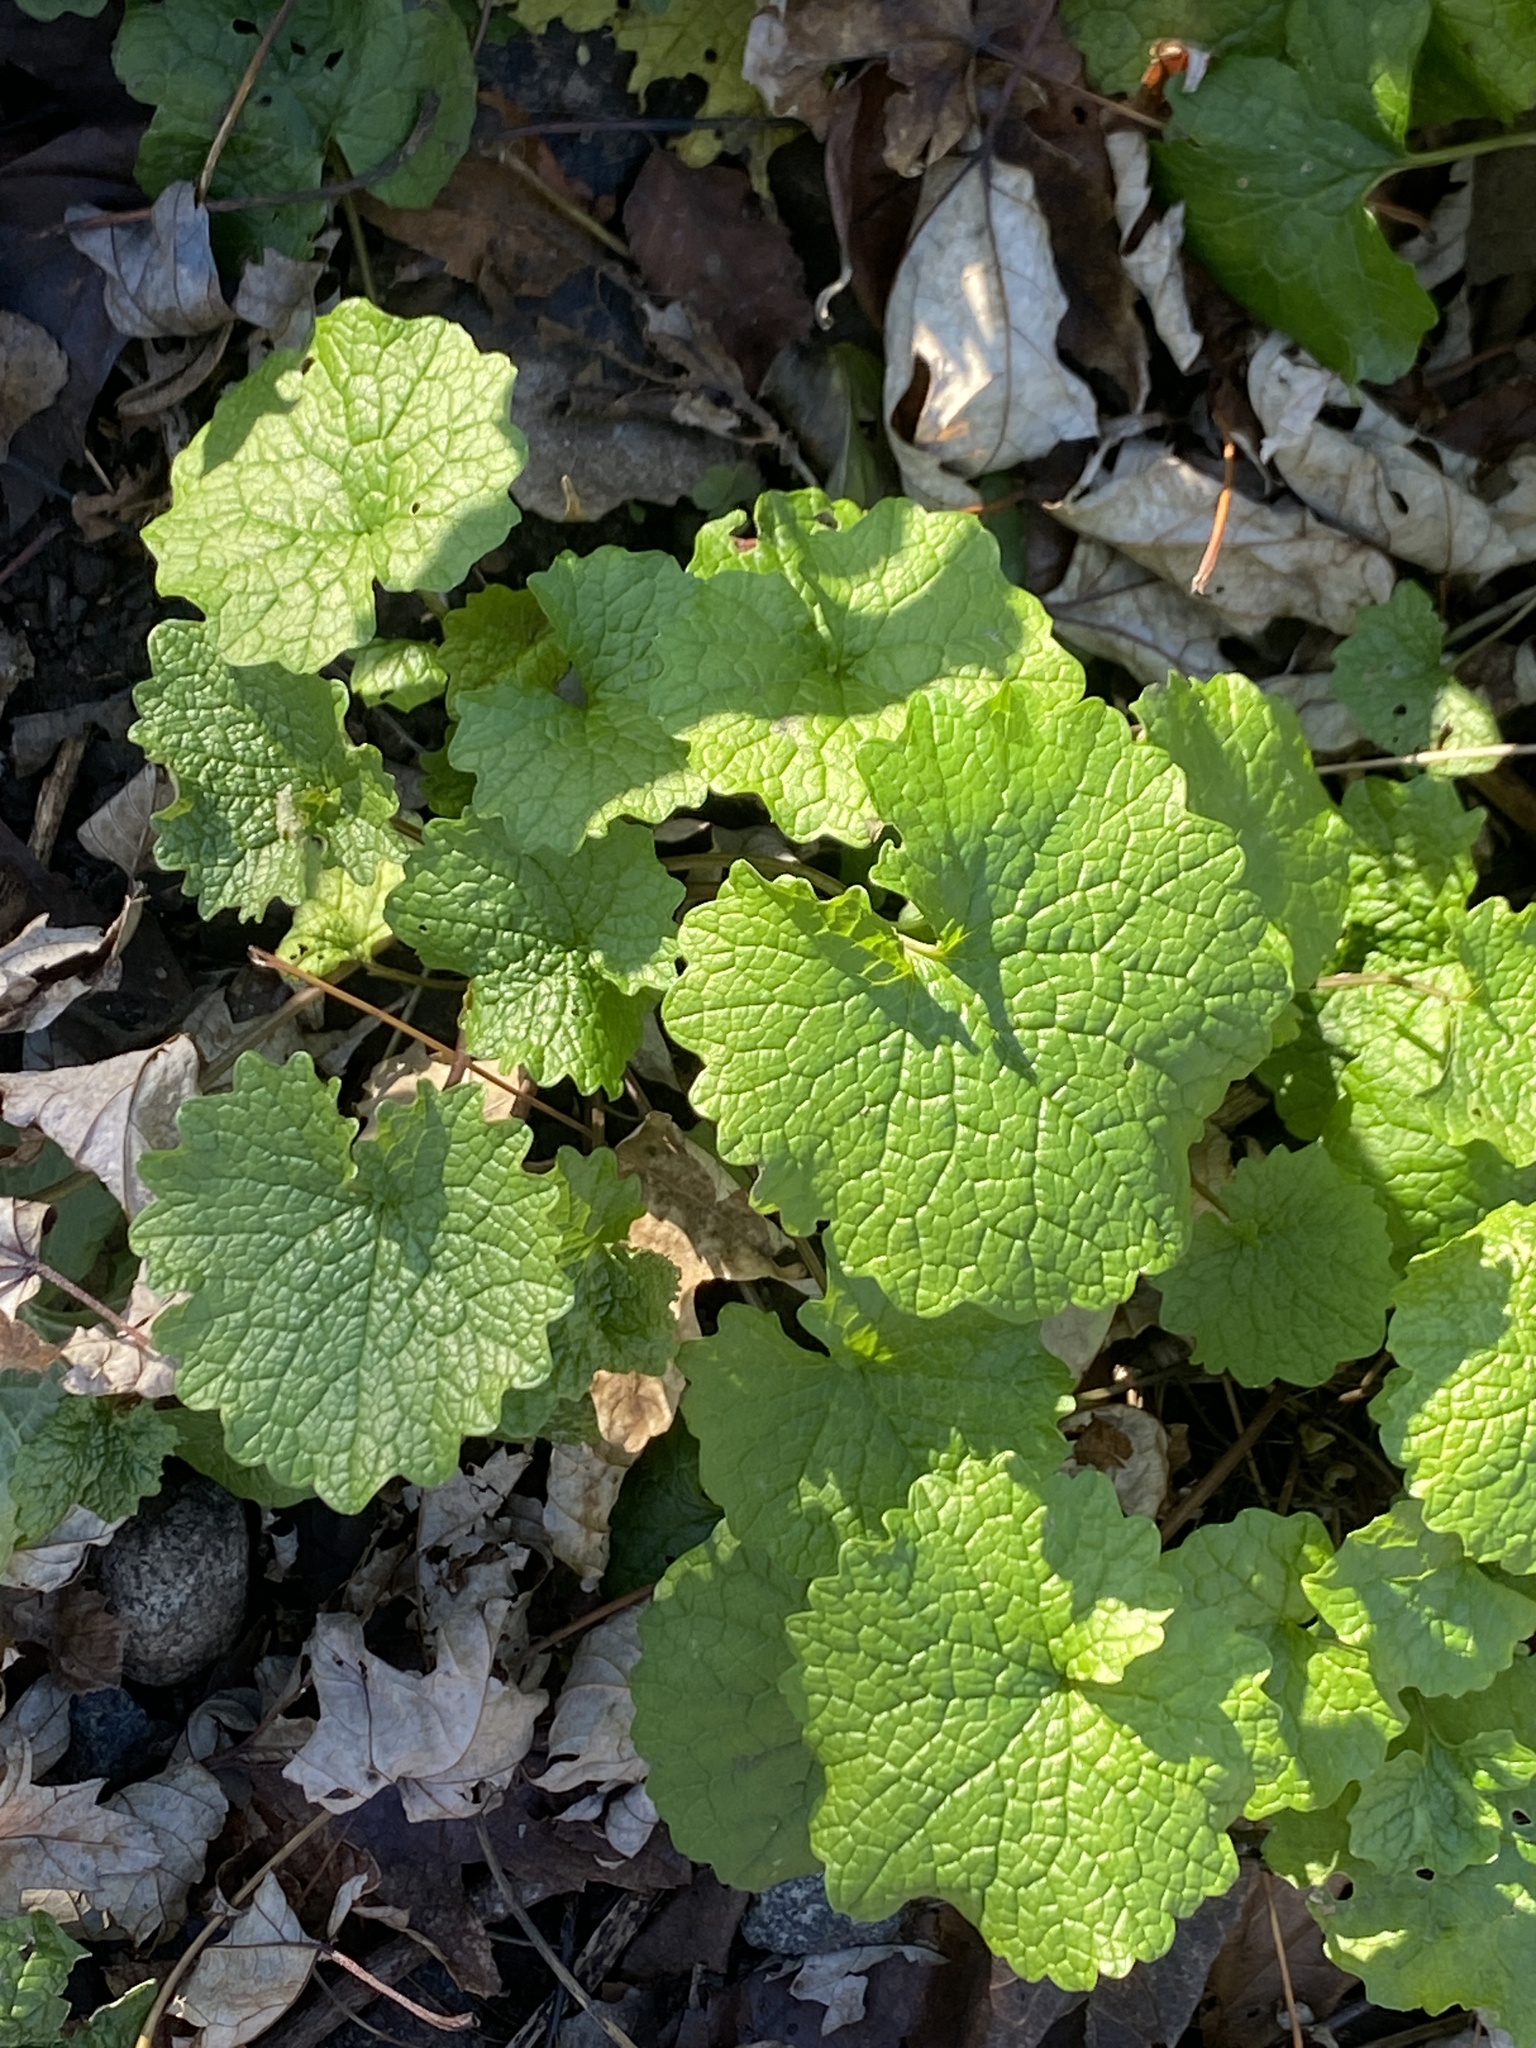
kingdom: Plantae
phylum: Tracheophyta
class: Magnoliopsida
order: Brassicales
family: Brassicaceae
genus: Alliaria
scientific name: Alliaria petiolata
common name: Garlic mustard
